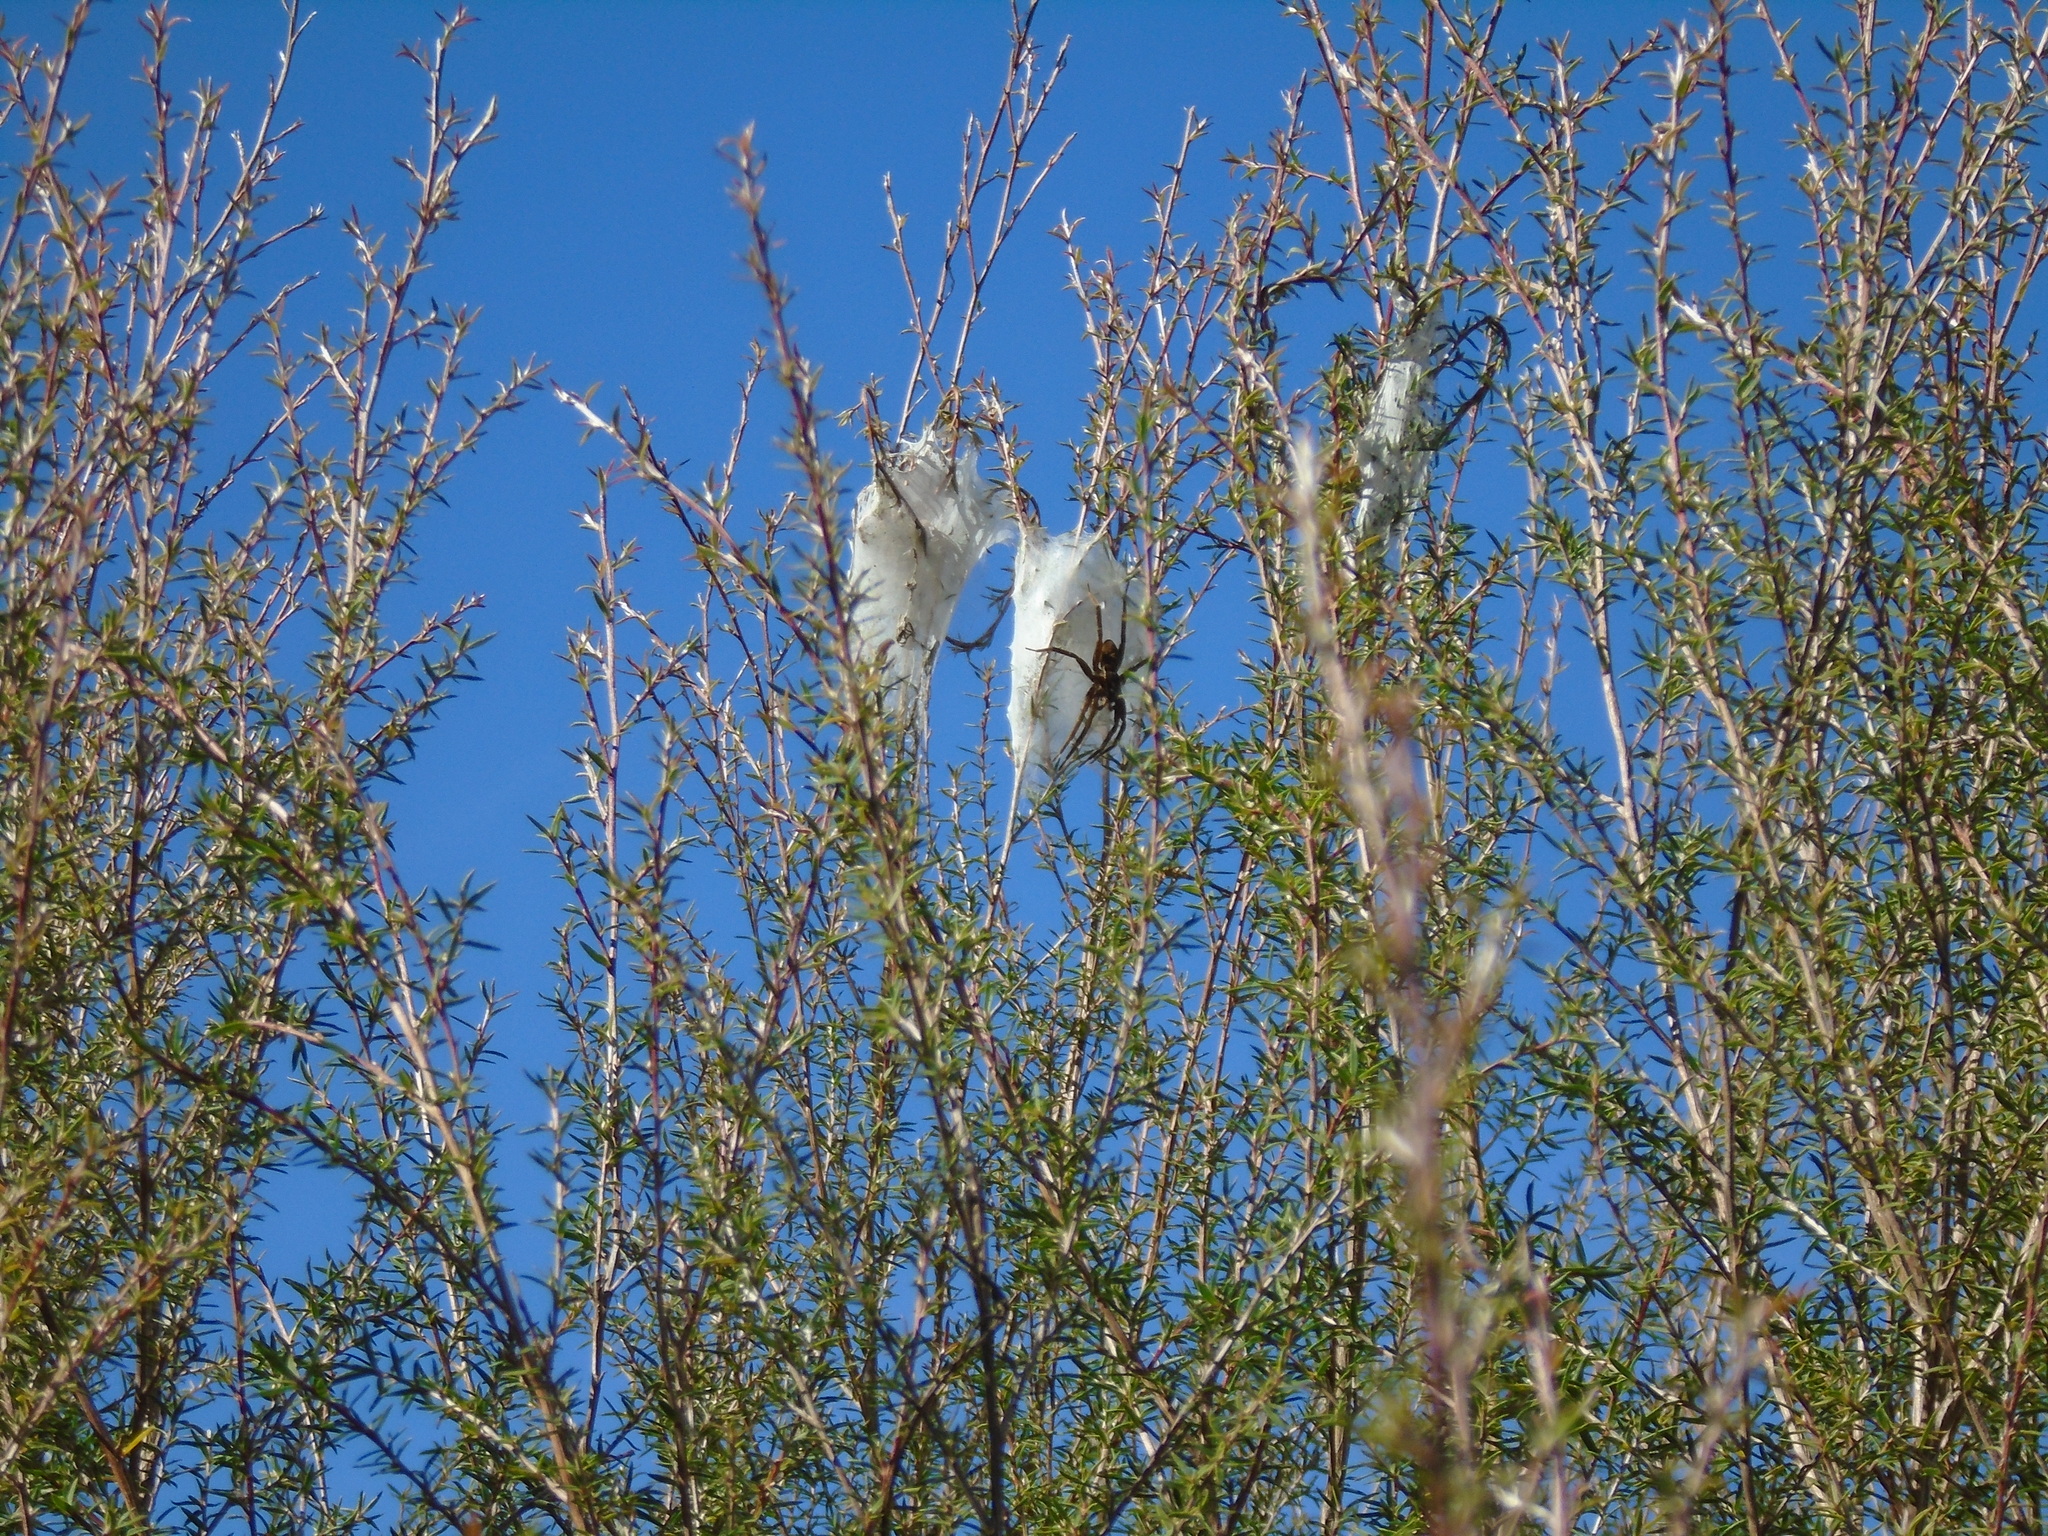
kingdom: Animalia
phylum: Arthropoda
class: Arachnida
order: Araneae
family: Pisauridae
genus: Dolomedes
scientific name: Dolomedes minor
